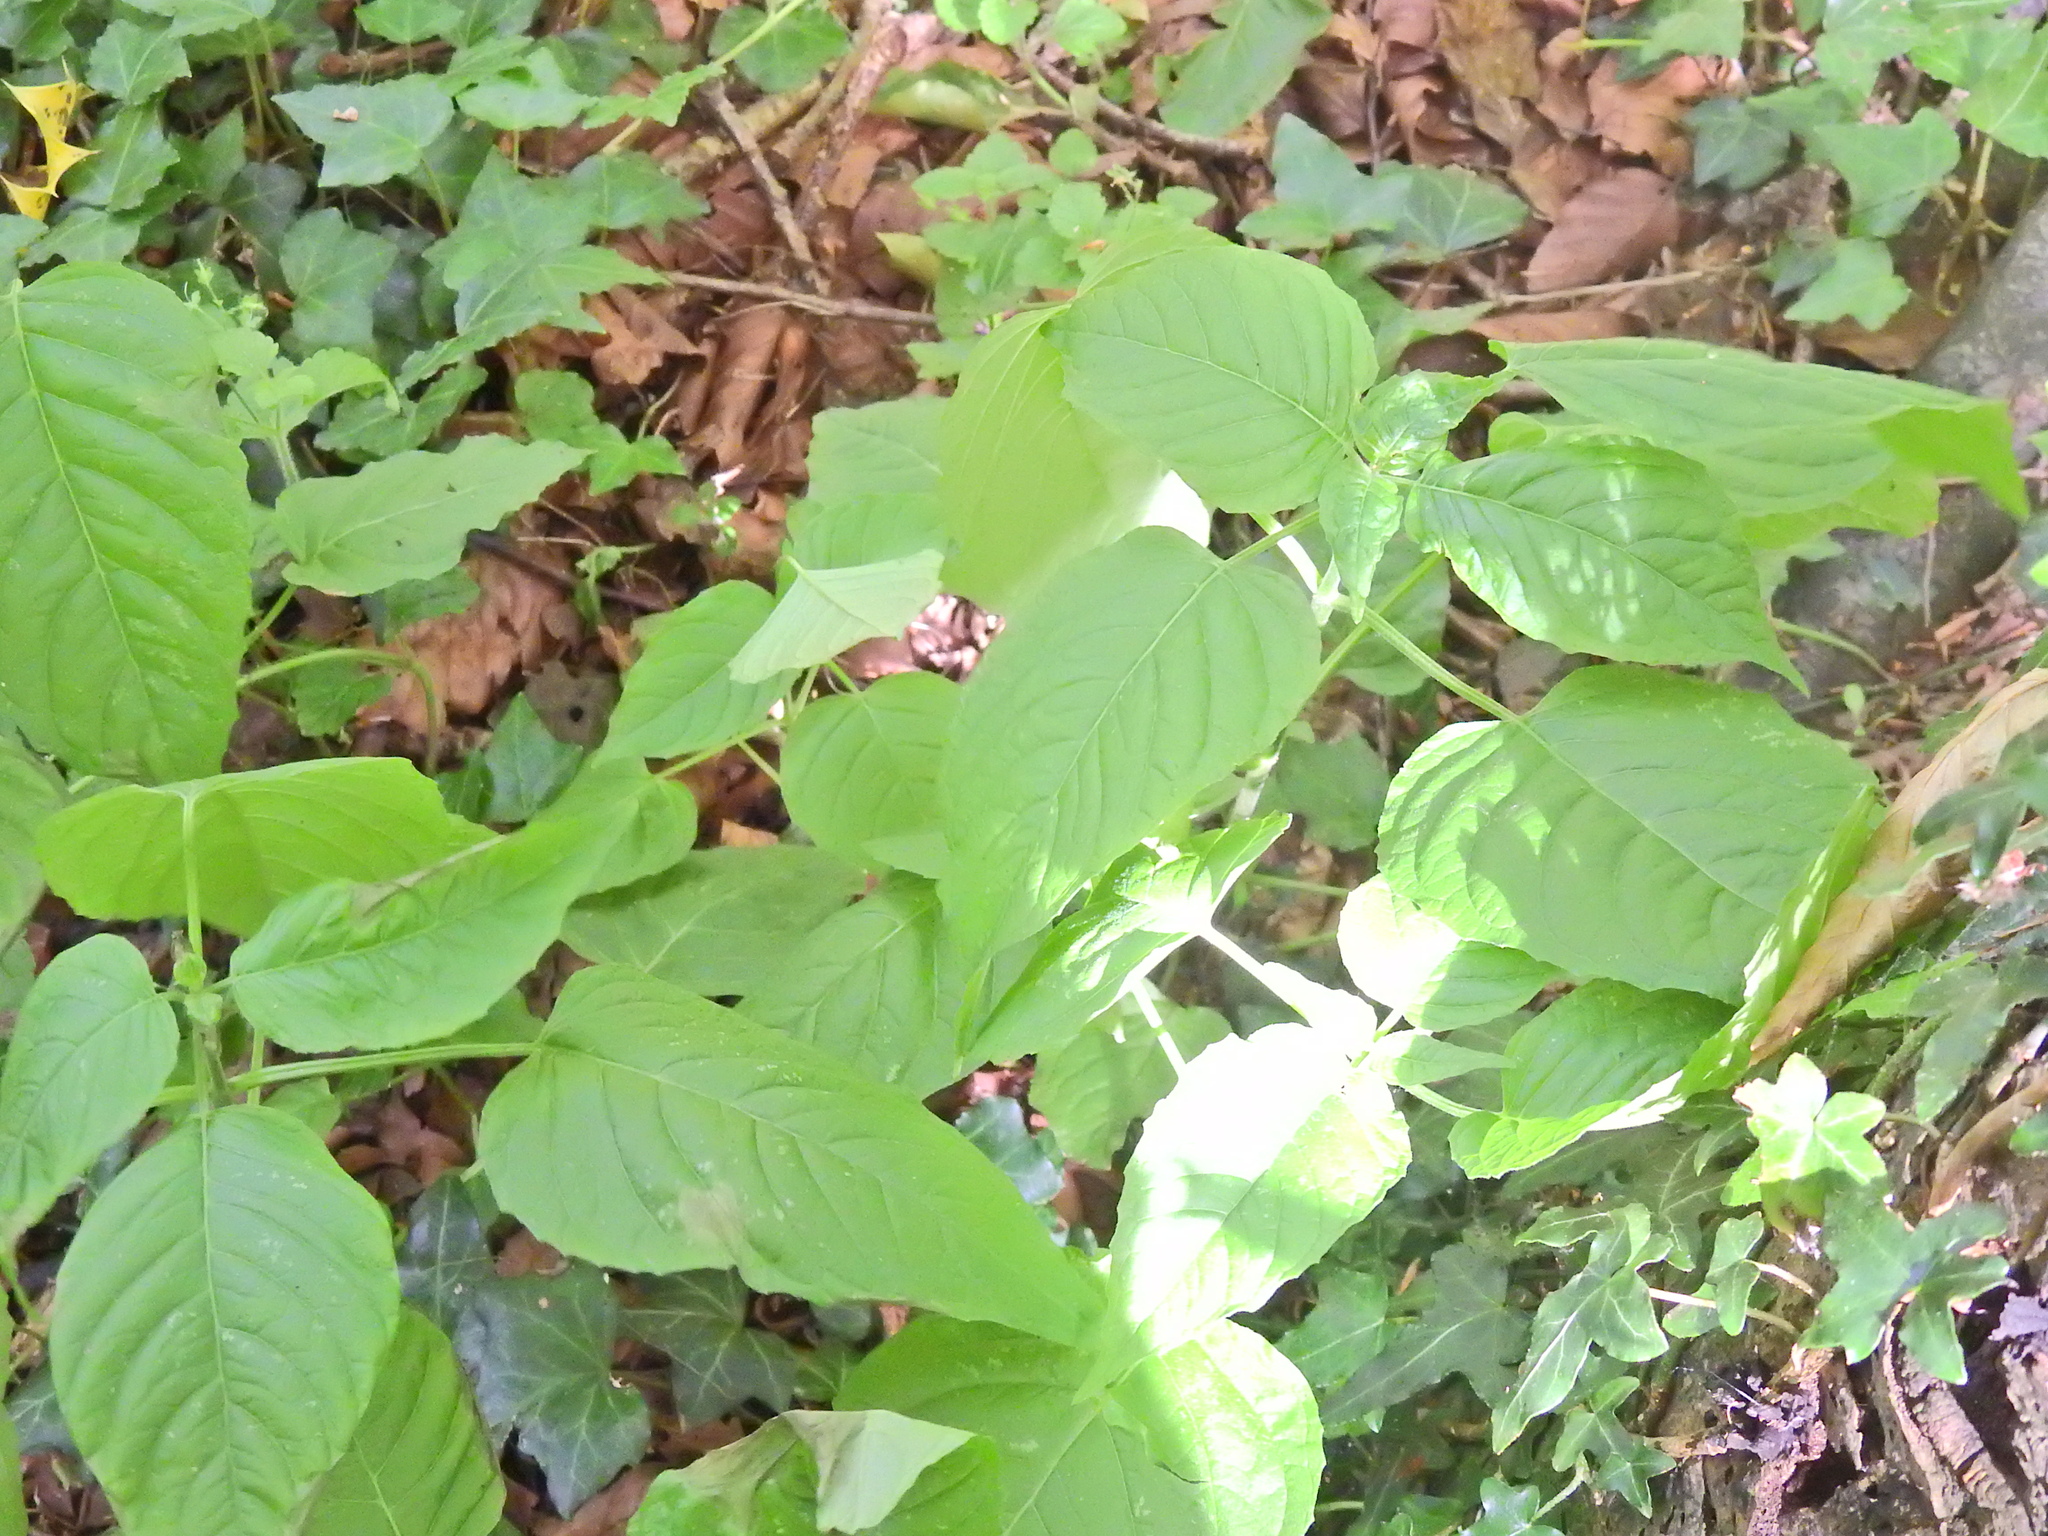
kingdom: Plantae
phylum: Tracheophyta
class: Magnoliopsida
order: Myrtales
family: Onagraceae
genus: Circaea
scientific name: Circaea lutetiana
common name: Enchanter's-nightshade
